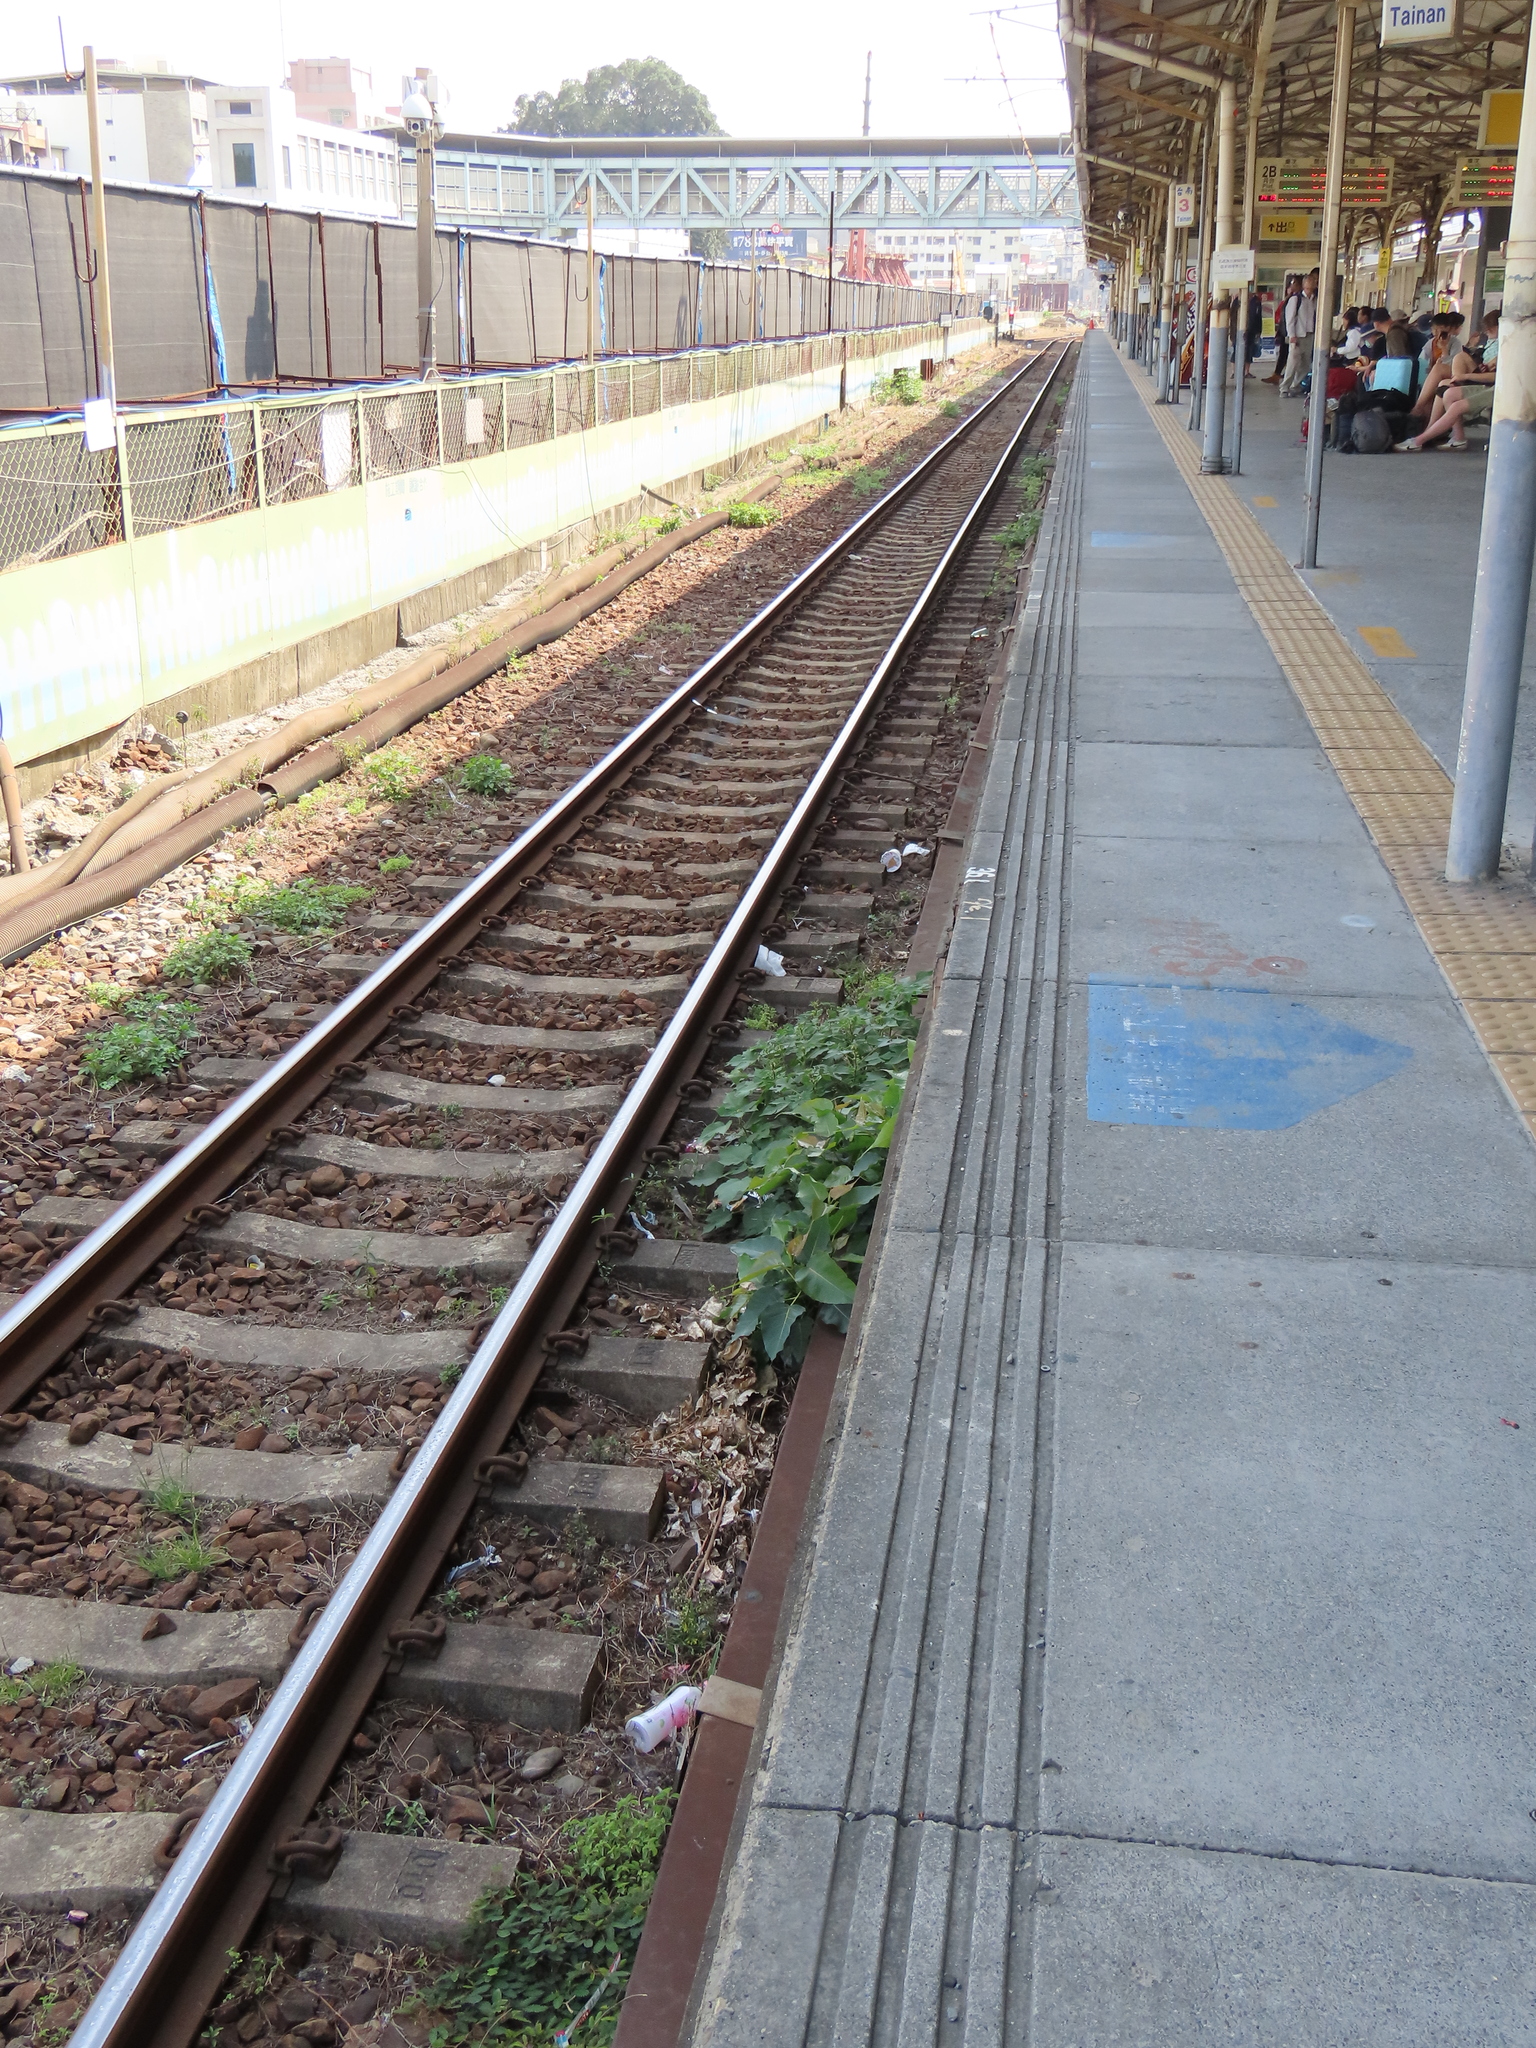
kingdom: Plantae
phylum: Tracheophyta
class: Magnoliopsida
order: Malpighiales
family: Euphorbiaceae
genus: Macaranga
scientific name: Macaranga tanarius
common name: Parasol leaf tree
